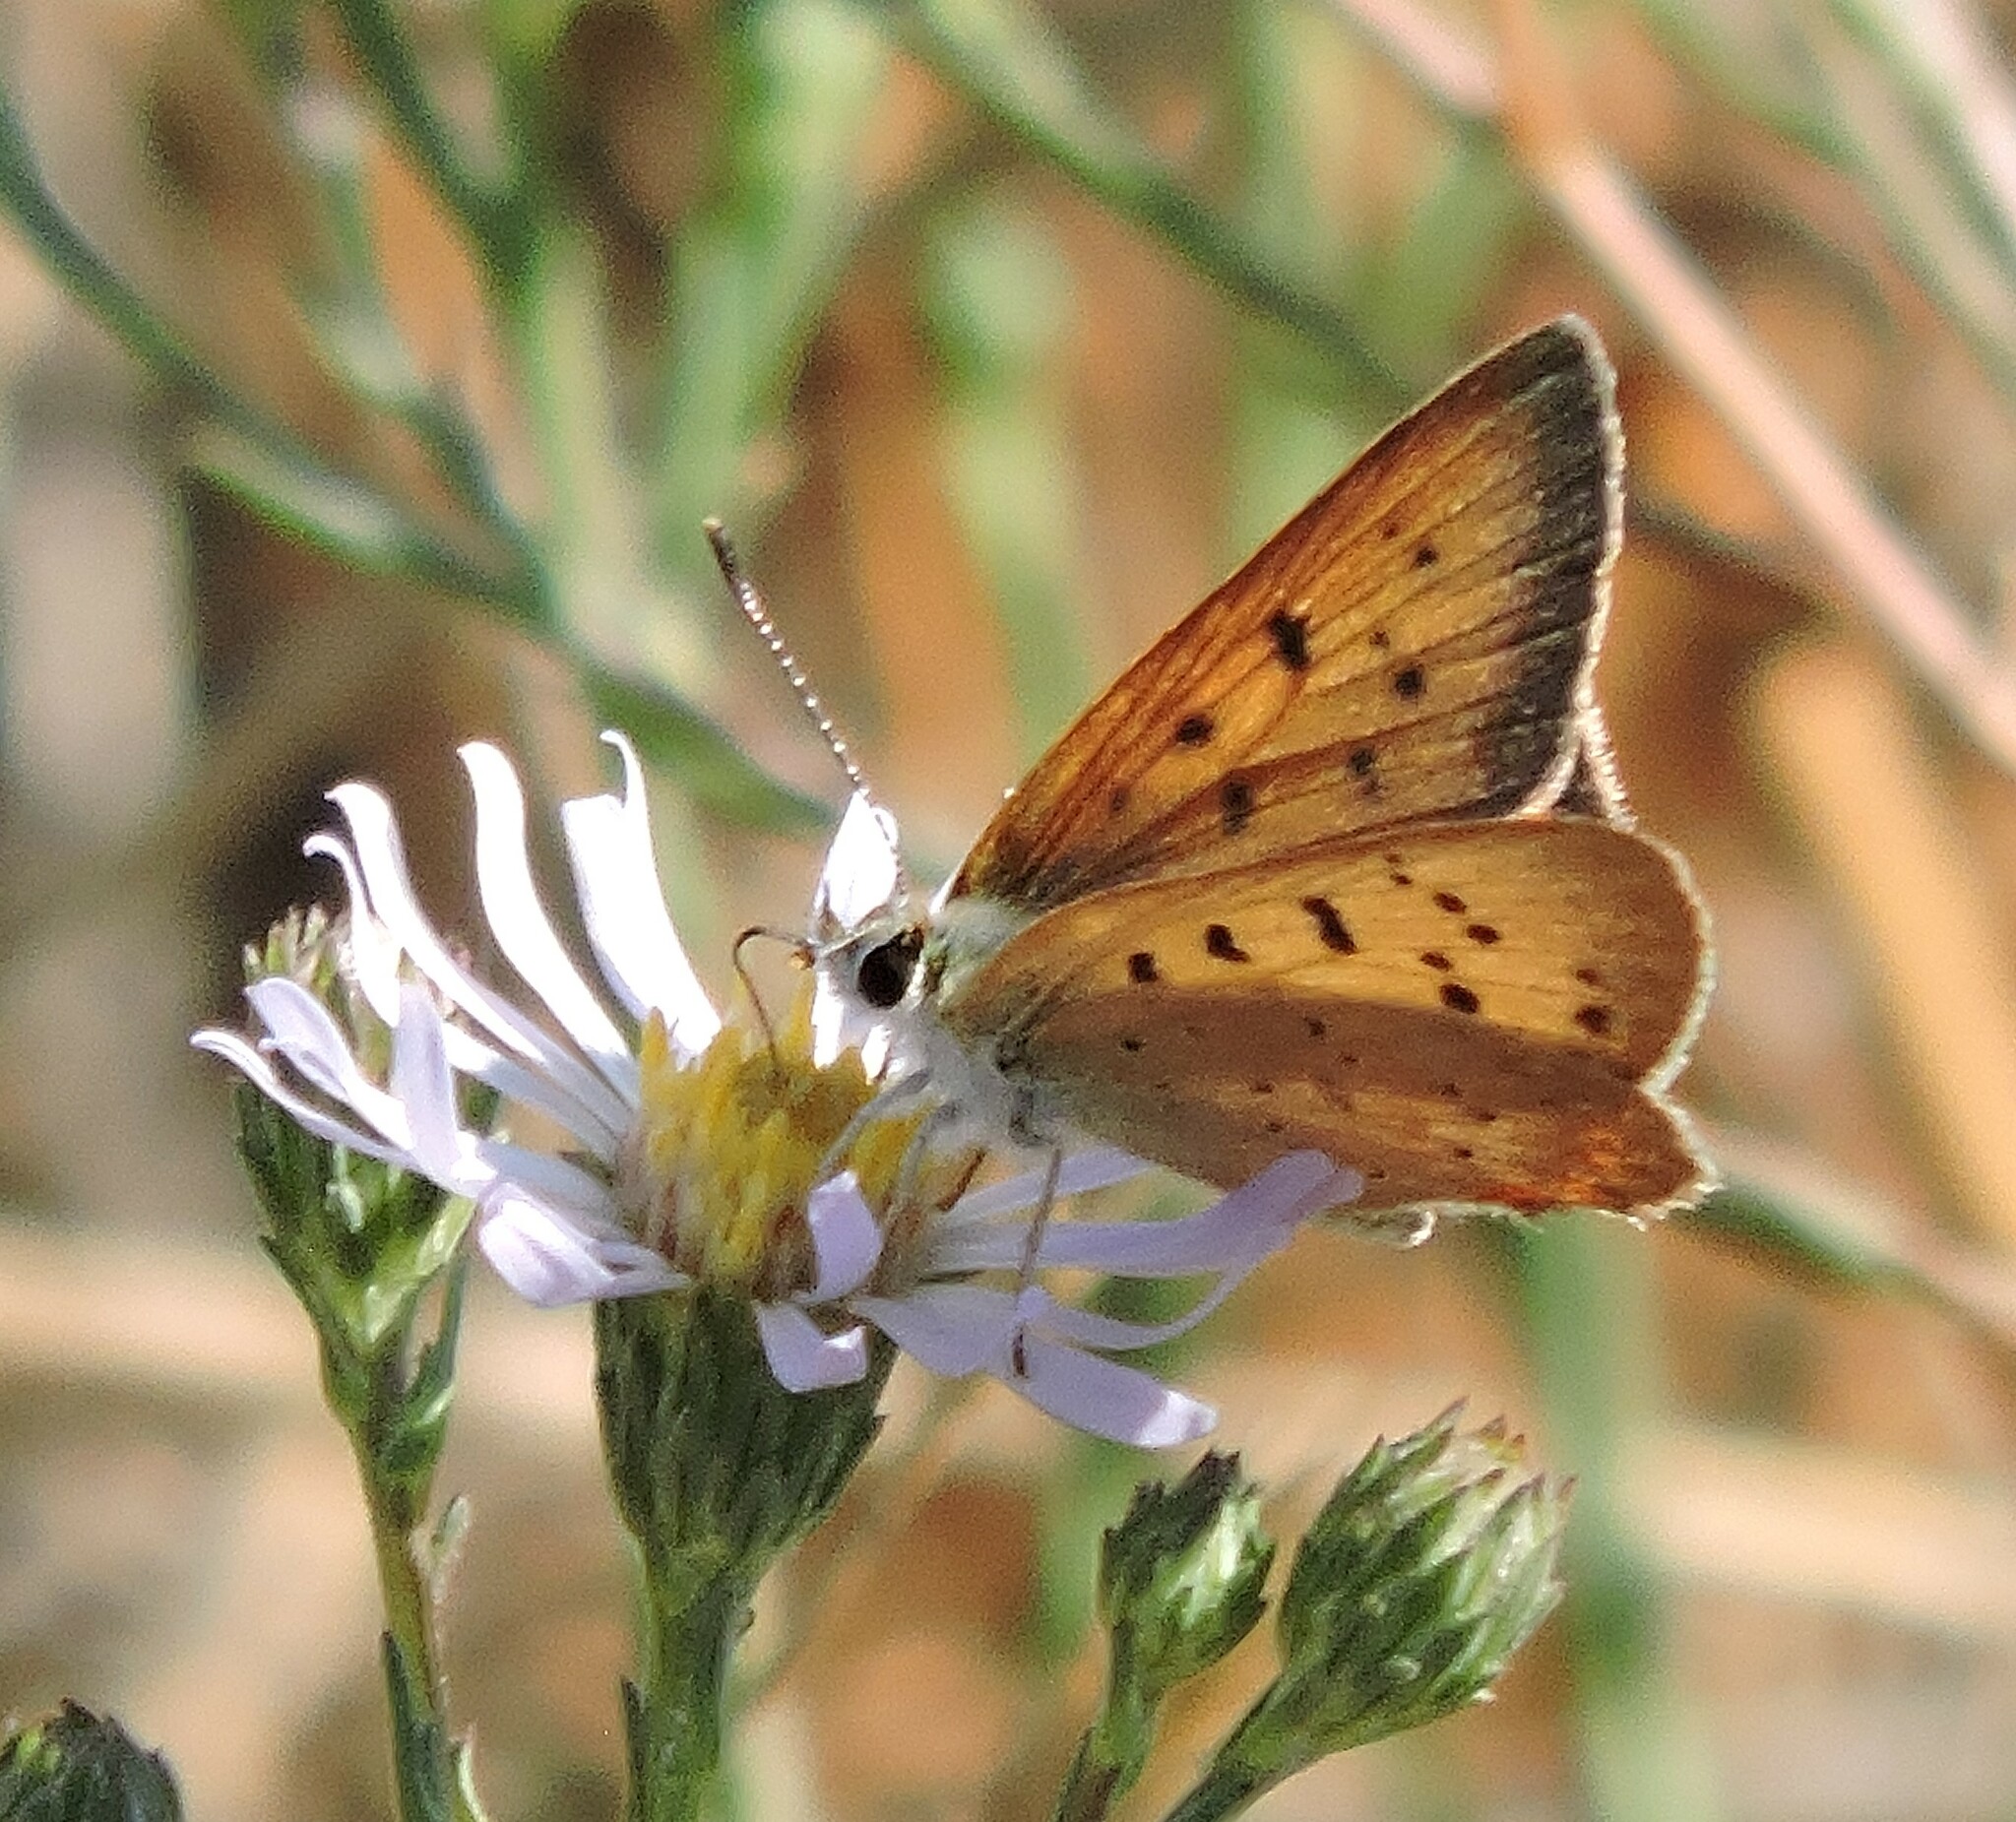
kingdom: Animalia
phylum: Arthropoda
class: Insecta
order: Lepidoptera
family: Lycaenidae
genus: Tharsalea
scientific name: Tharsalea helloides
